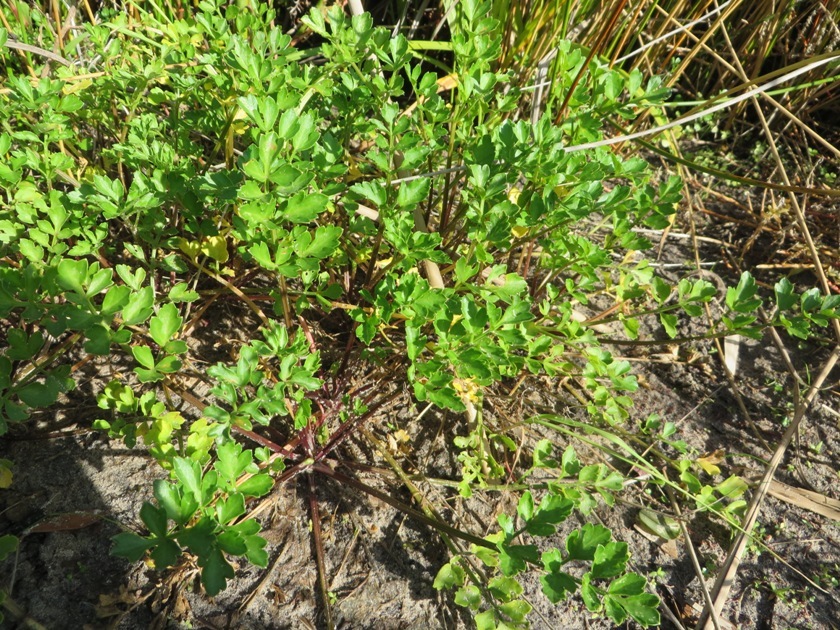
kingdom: Plantae
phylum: Tracheophyta
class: Magnoliopsida
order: Apiales
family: Apiaceae
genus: Apium
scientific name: Apium decumbens
